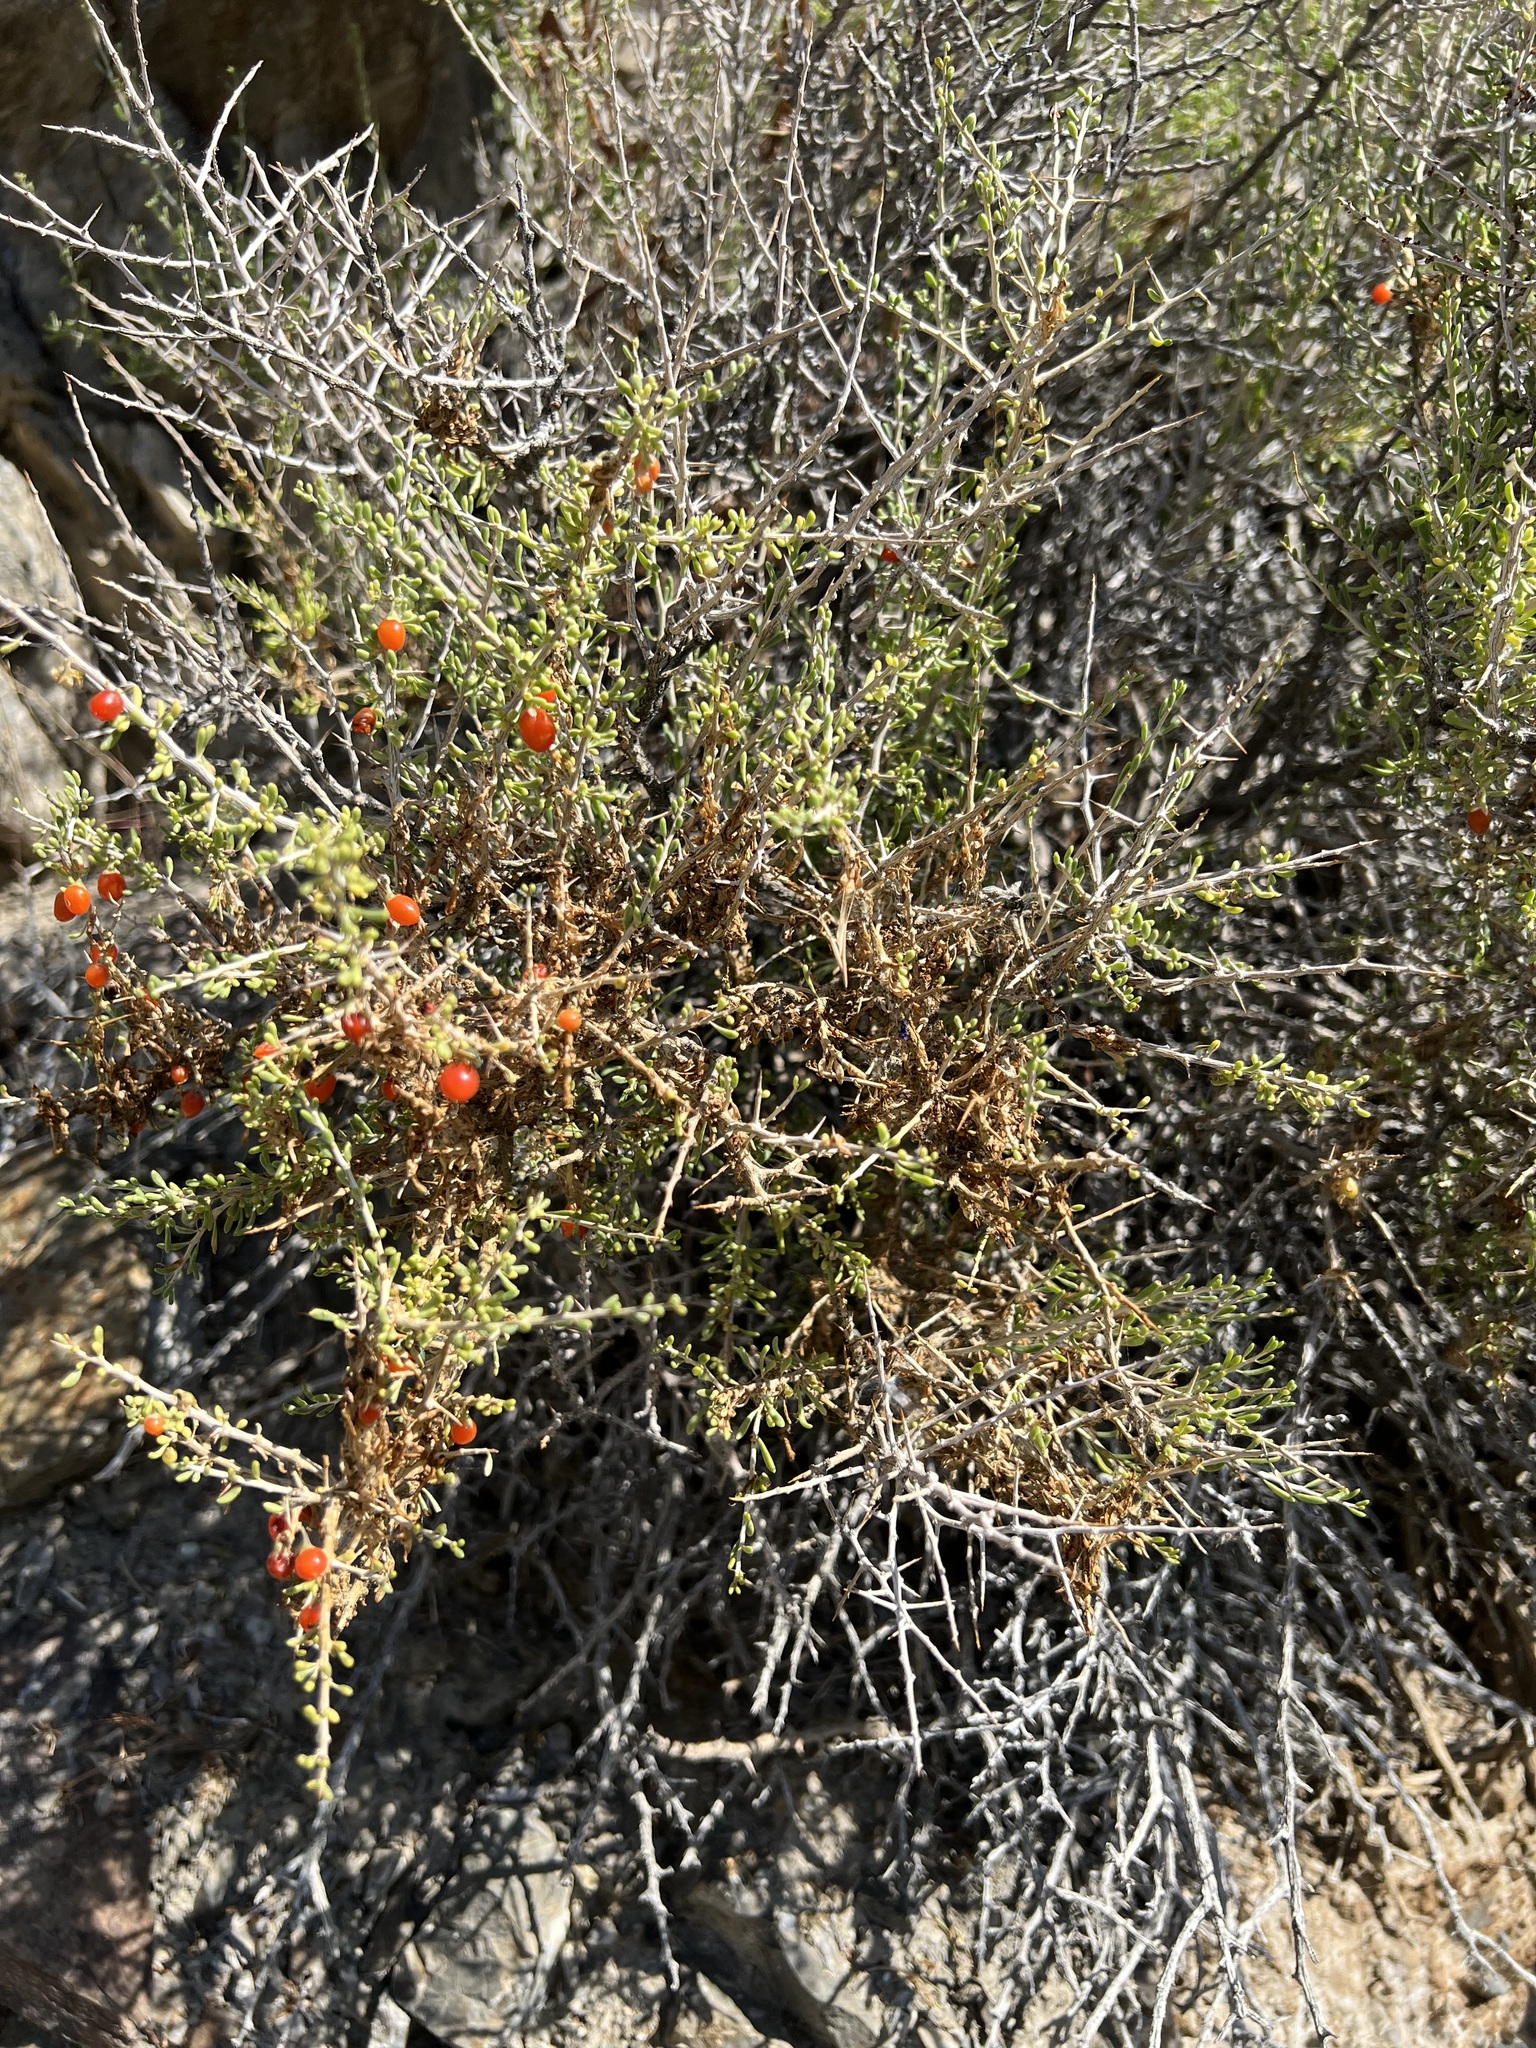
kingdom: Plantae
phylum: Tracheophyta
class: Magnoliopsida
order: Solanales
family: Solanaceae
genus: Lycium
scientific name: Lycium andersonii
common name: Water-jacket
